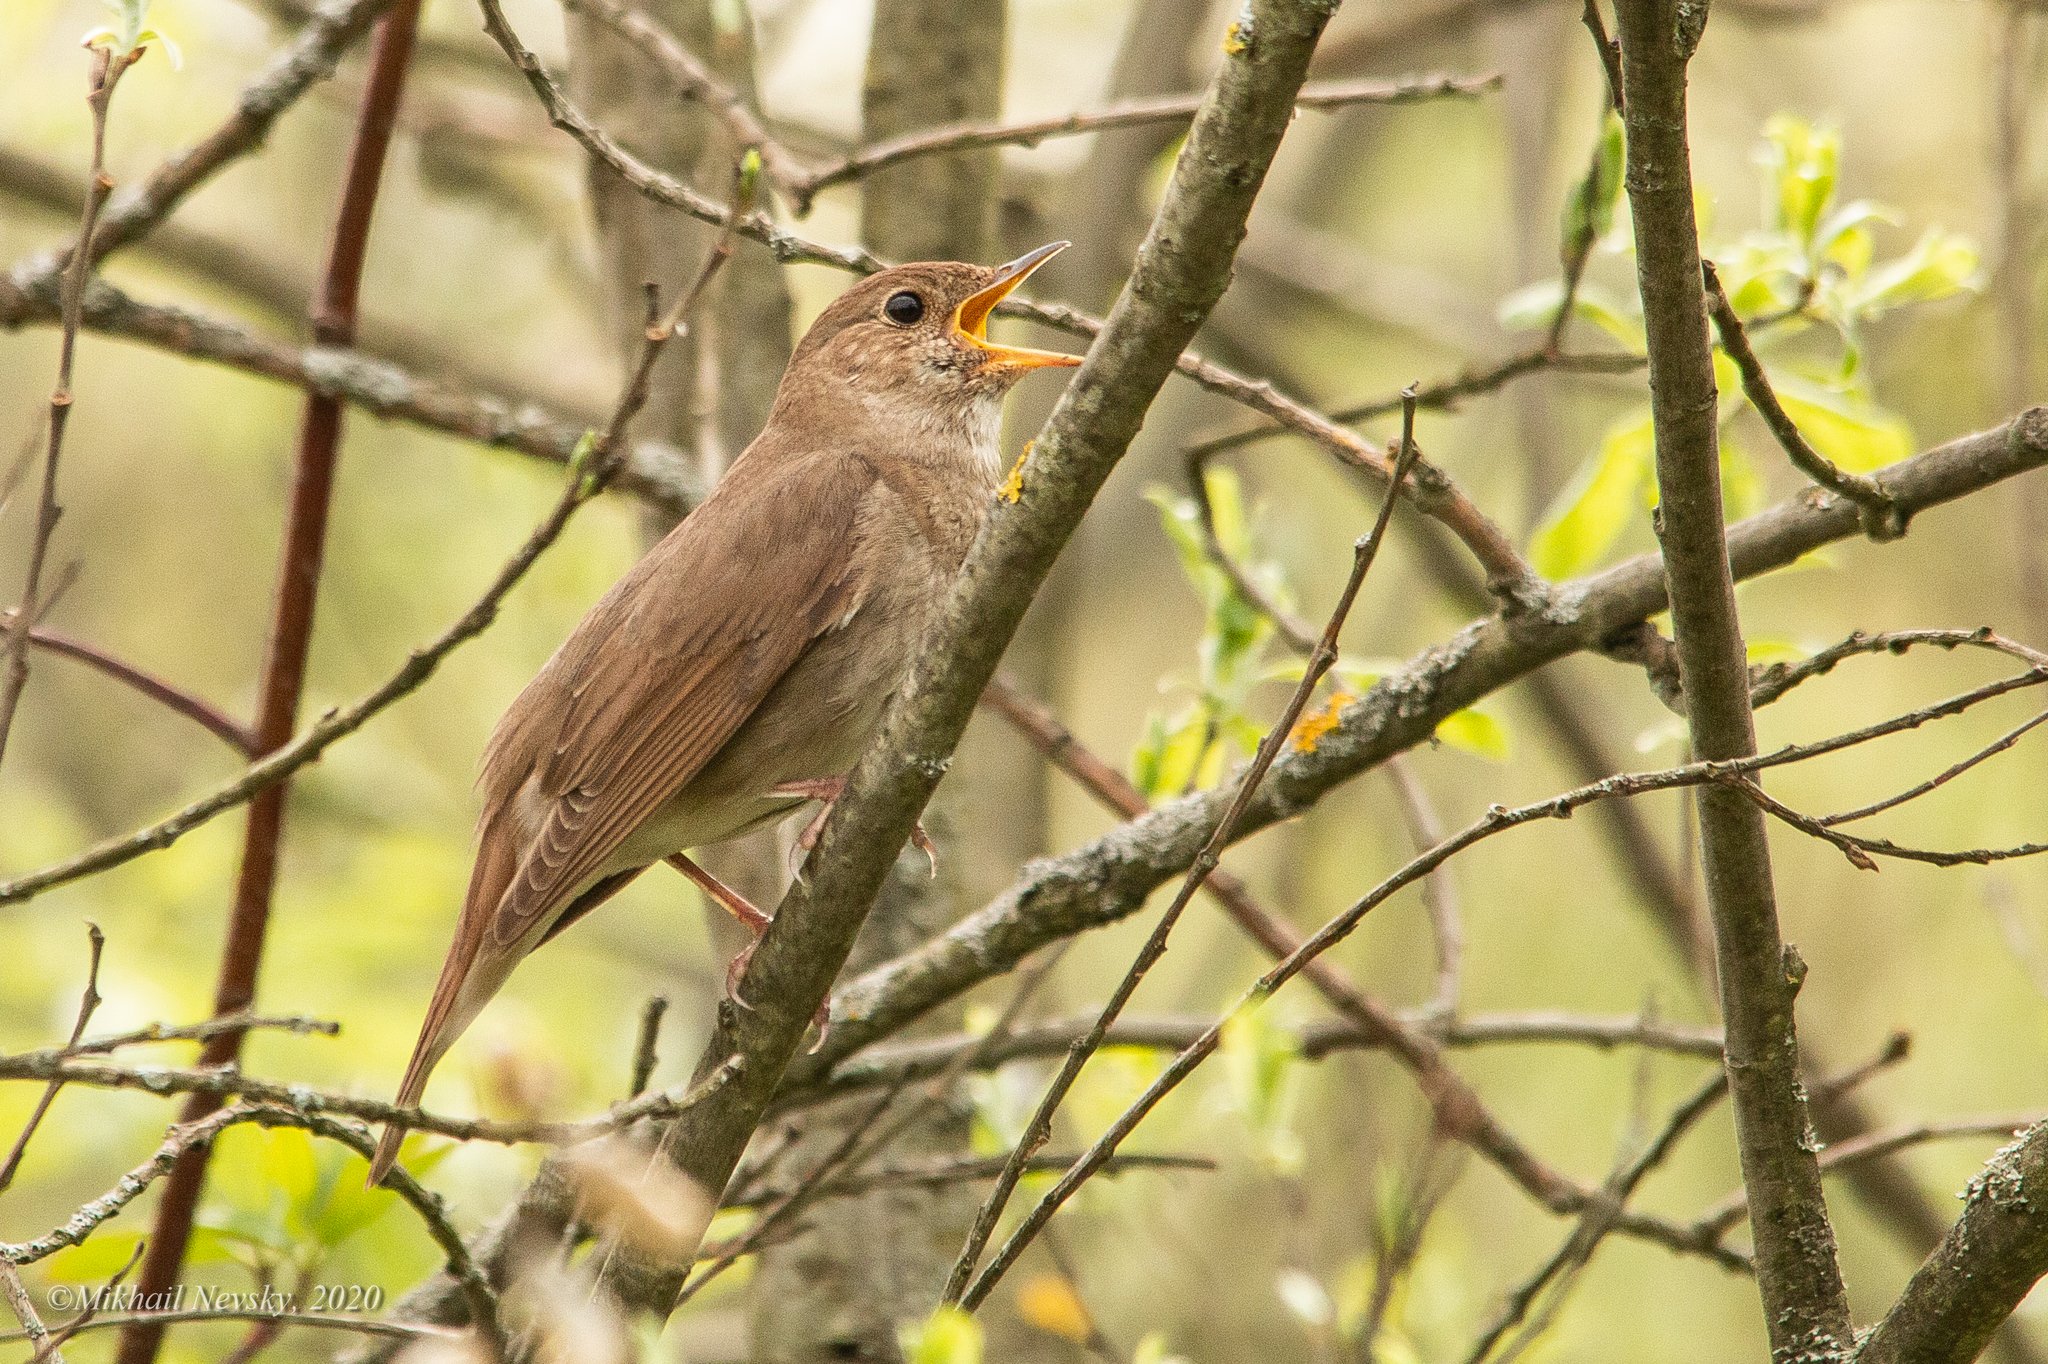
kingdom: Animalia
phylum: Chordata
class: Aves
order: Passeriformes
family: Muscicapidae
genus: Luscinia
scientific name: Luscinia luscinia
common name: Thrush nightingale
